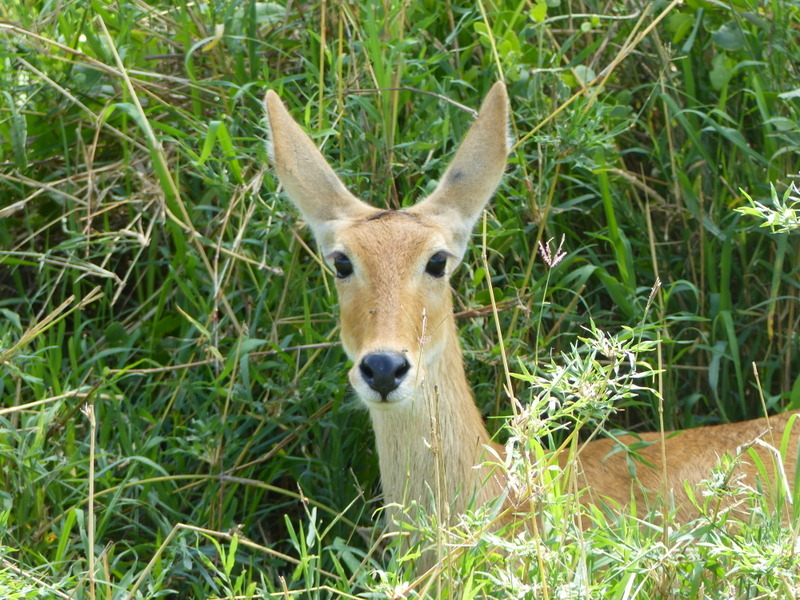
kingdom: Animalia
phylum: Chordata
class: Mammalia
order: Artiodactyla
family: Bovidae
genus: Redunca
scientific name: Redunca redunca
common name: Common reedbuck
